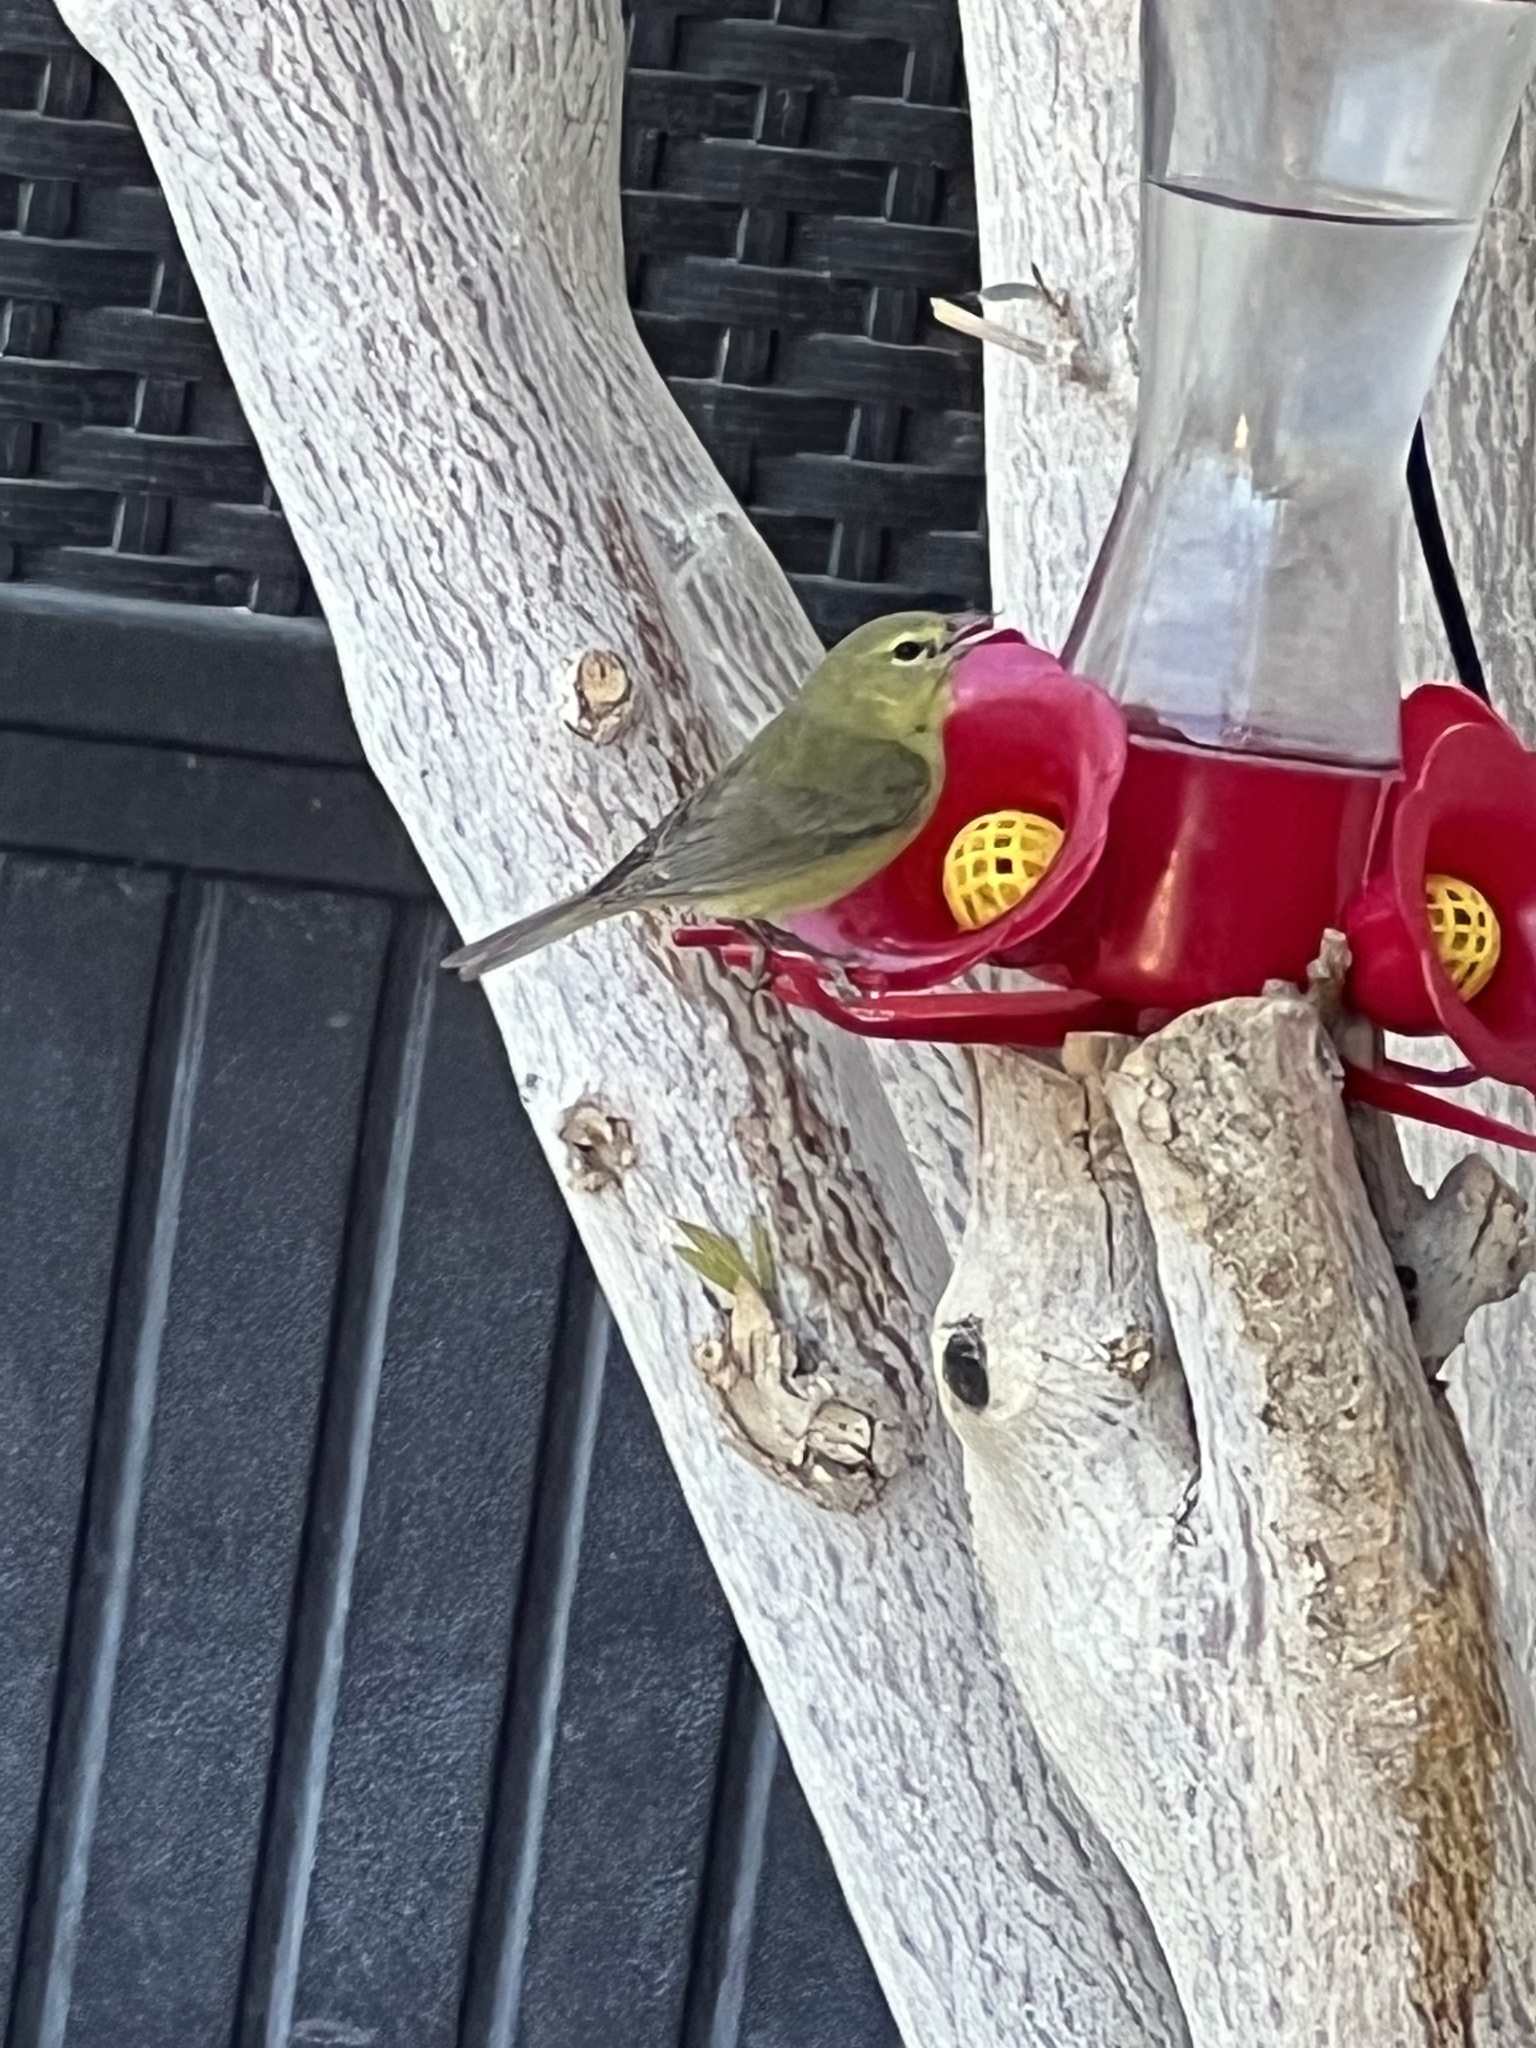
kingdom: Animalia
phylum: Chordata
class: Aves
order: Passeriformes
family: Parulidae
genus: Leiothlypis
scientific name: Leiothlypis celata
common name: Orange-crowned warbler
